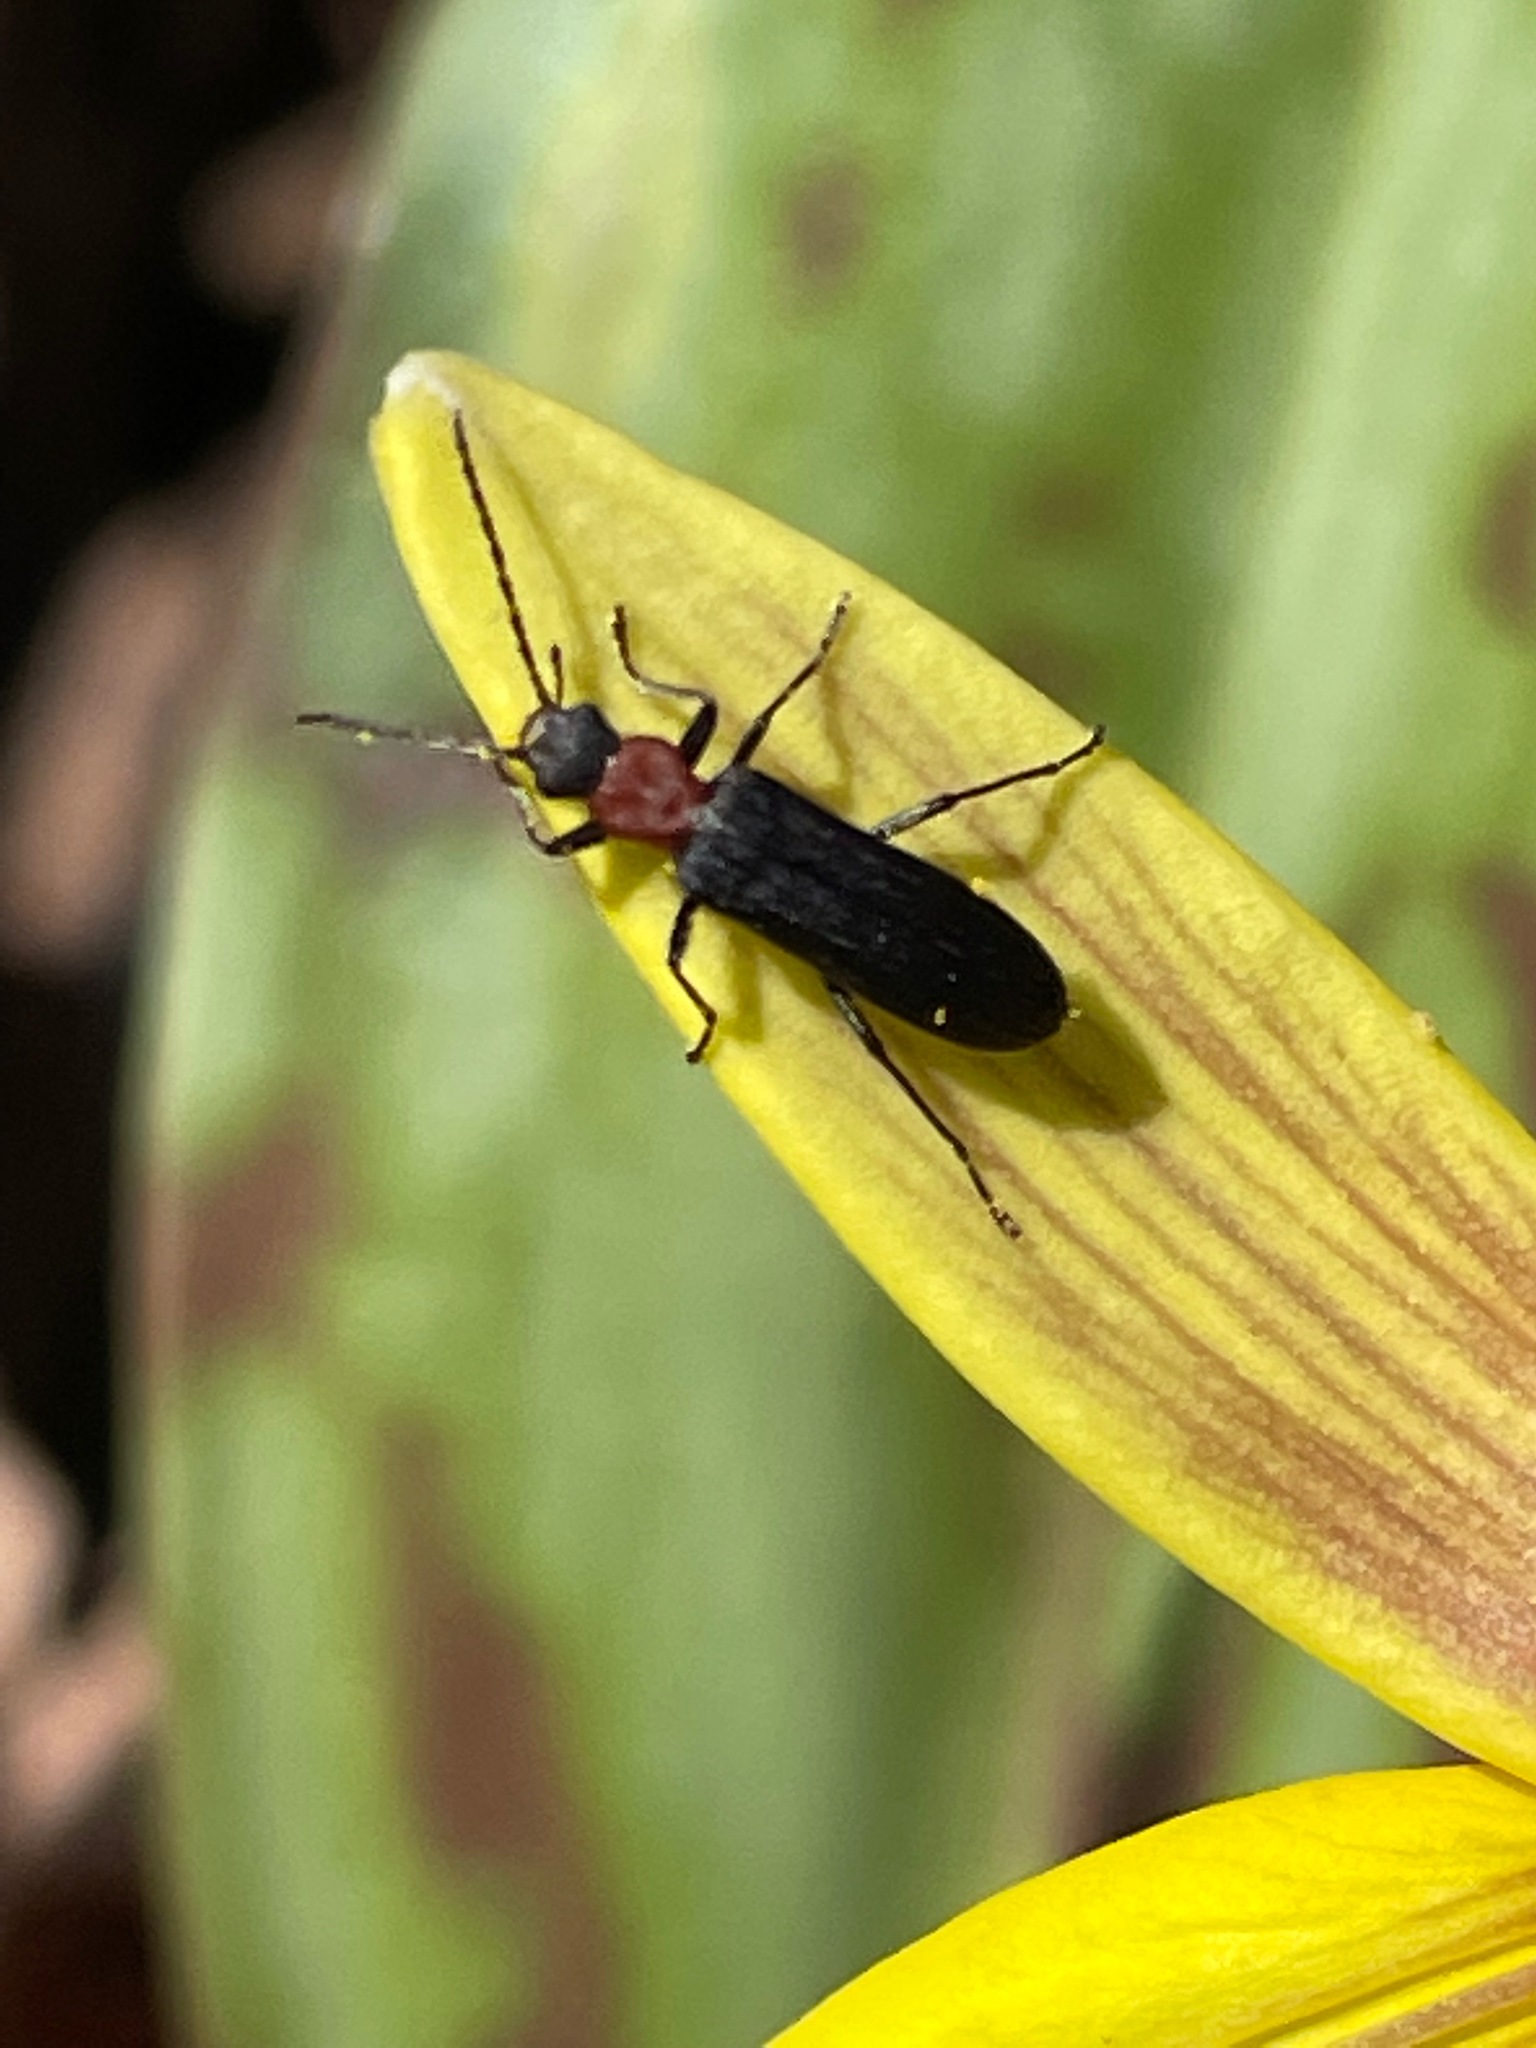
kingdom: Animalia
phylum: Arthropoda
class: Insecta
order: Coleoptera
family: Oedemeridae
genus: Ischnomera
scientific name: Ischnomera
